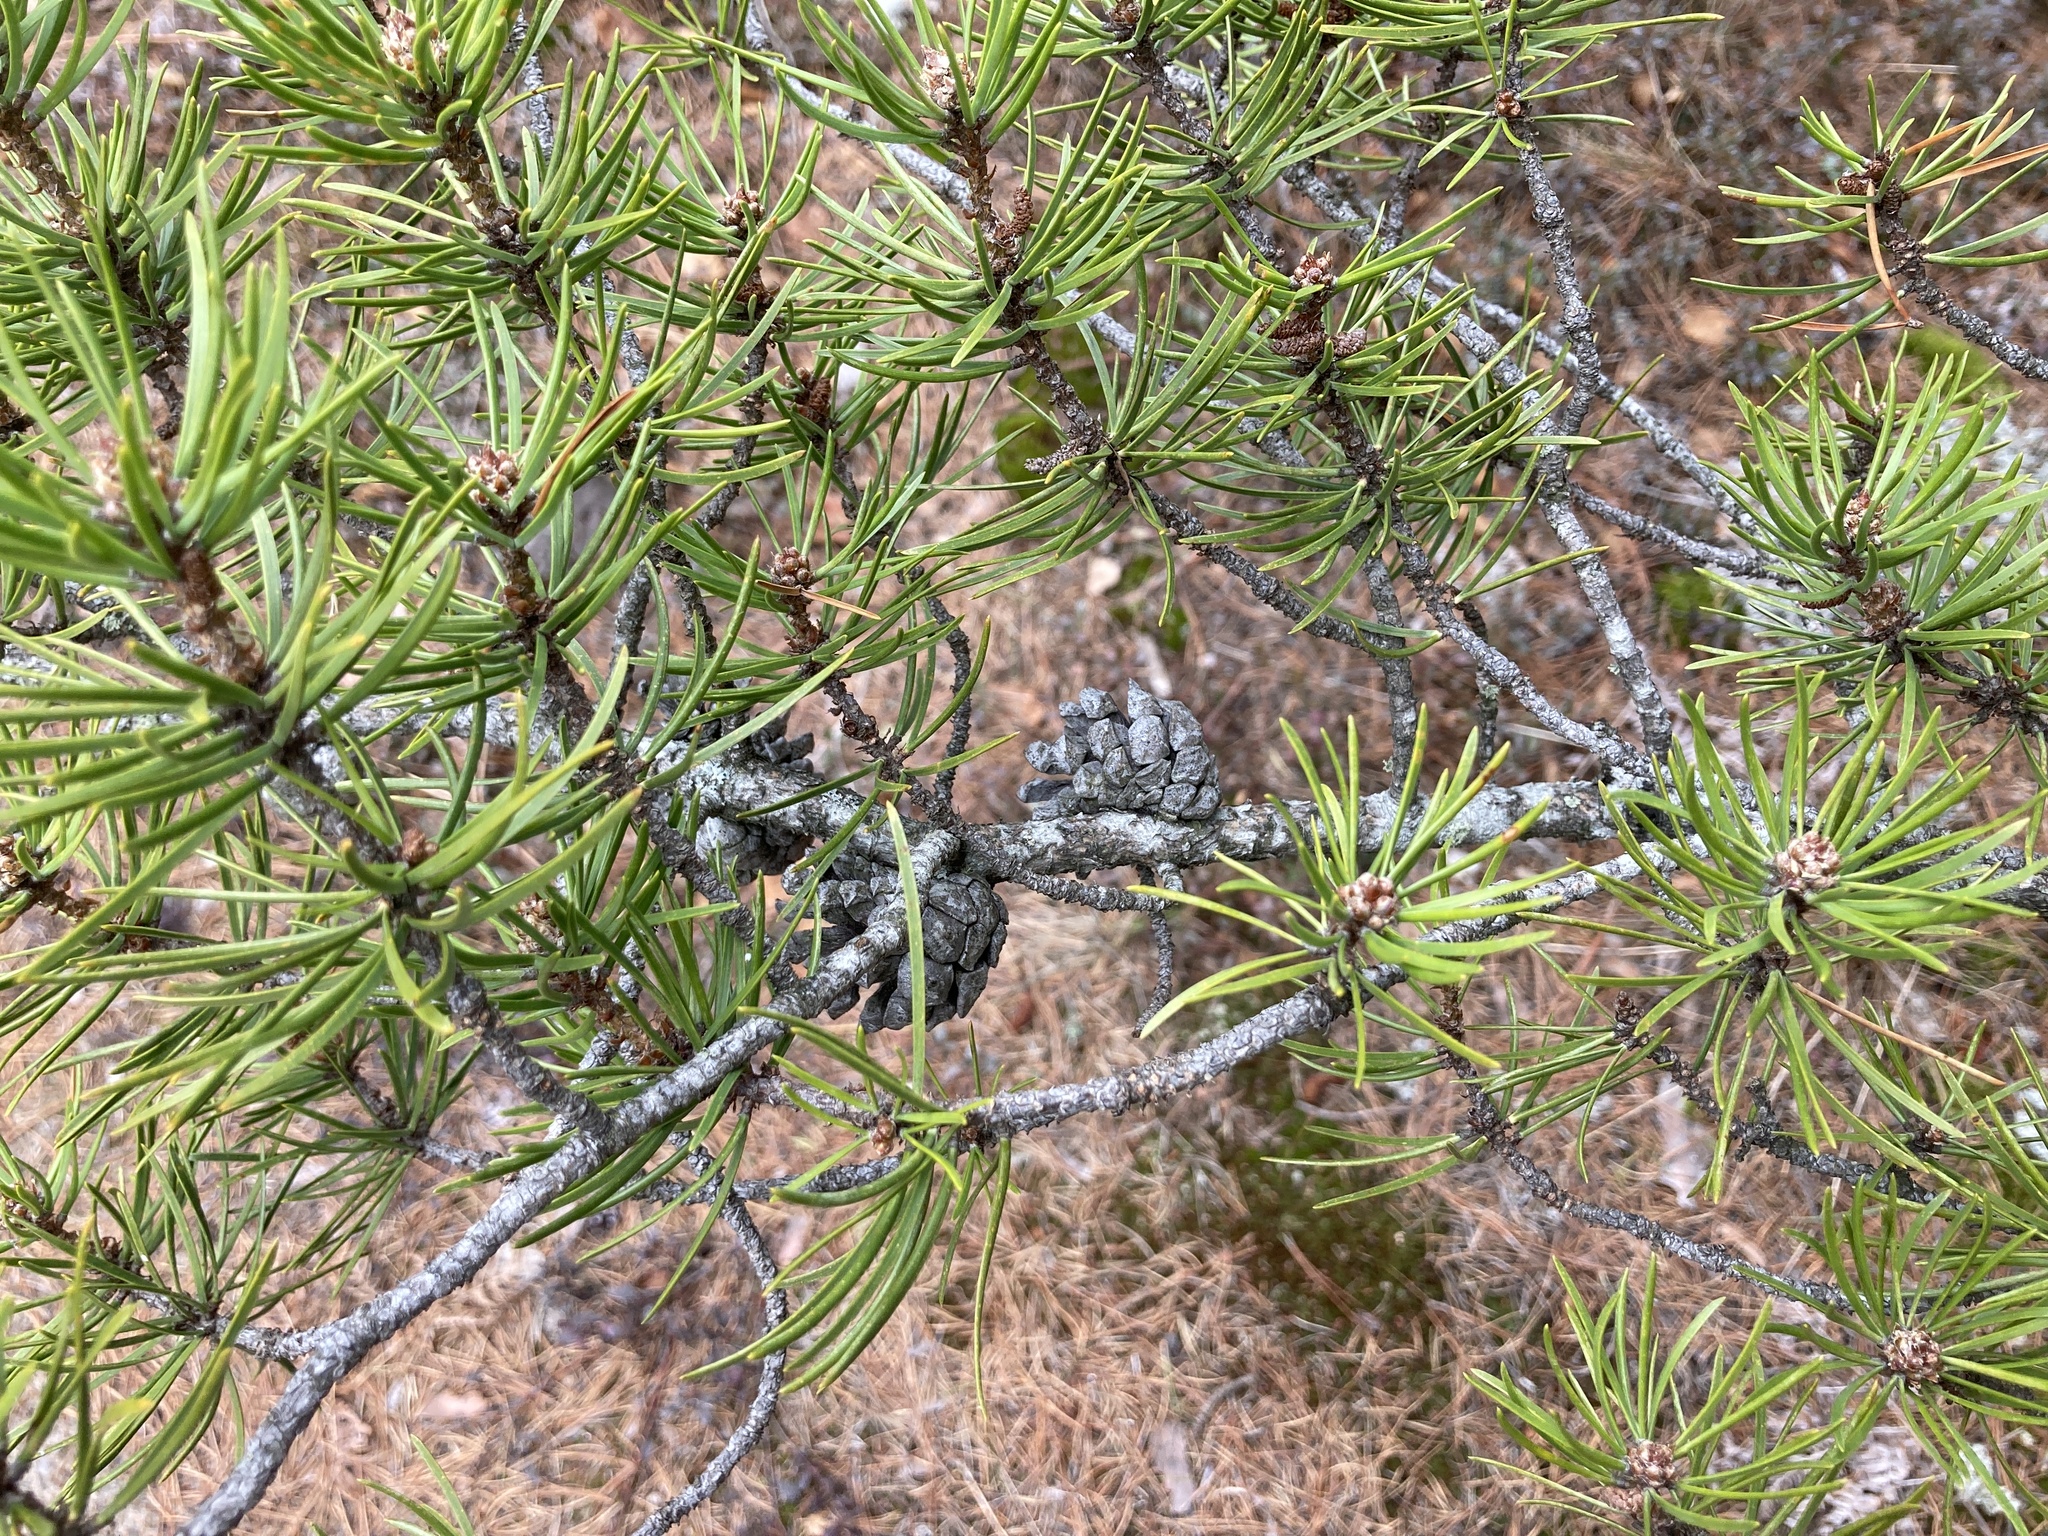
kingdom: Plantae
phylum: Tracheophyta
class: Pinopsida
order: Pinales
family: Pinaceae
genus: Pinus
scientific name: Pinus banksiana
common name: Jack pine
